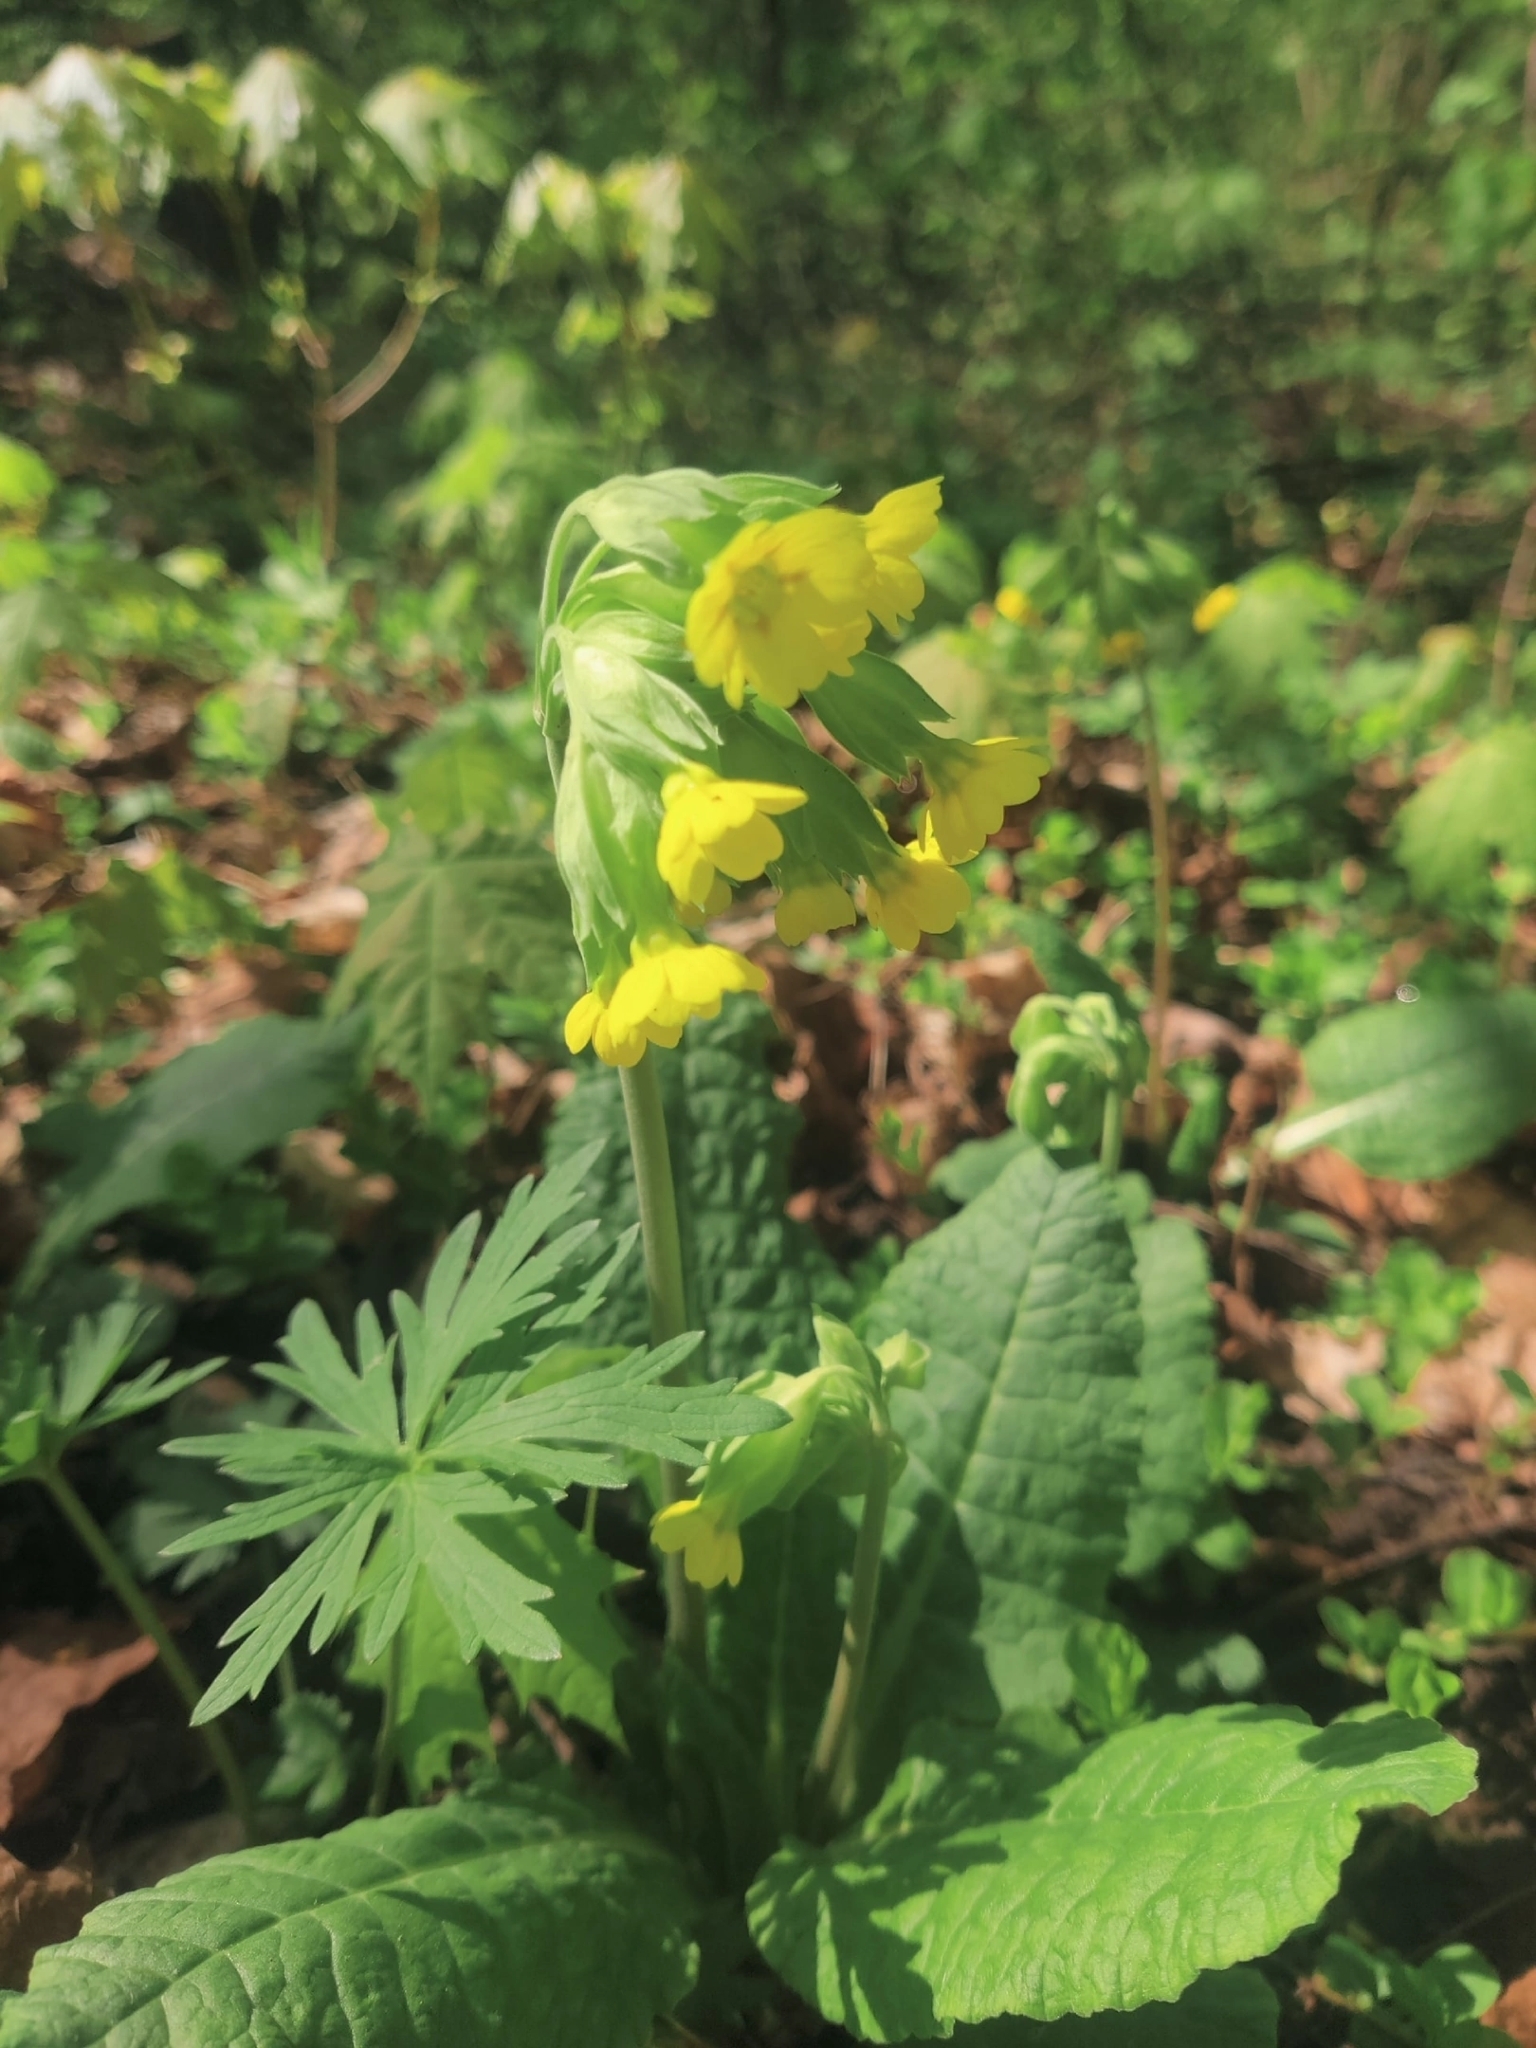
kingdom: Plantae
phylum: Tracheophyta
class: Magnoliopsida
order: Ericales
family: Primulaceae
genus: Primula
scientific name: Primula veris
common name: Cowslip
